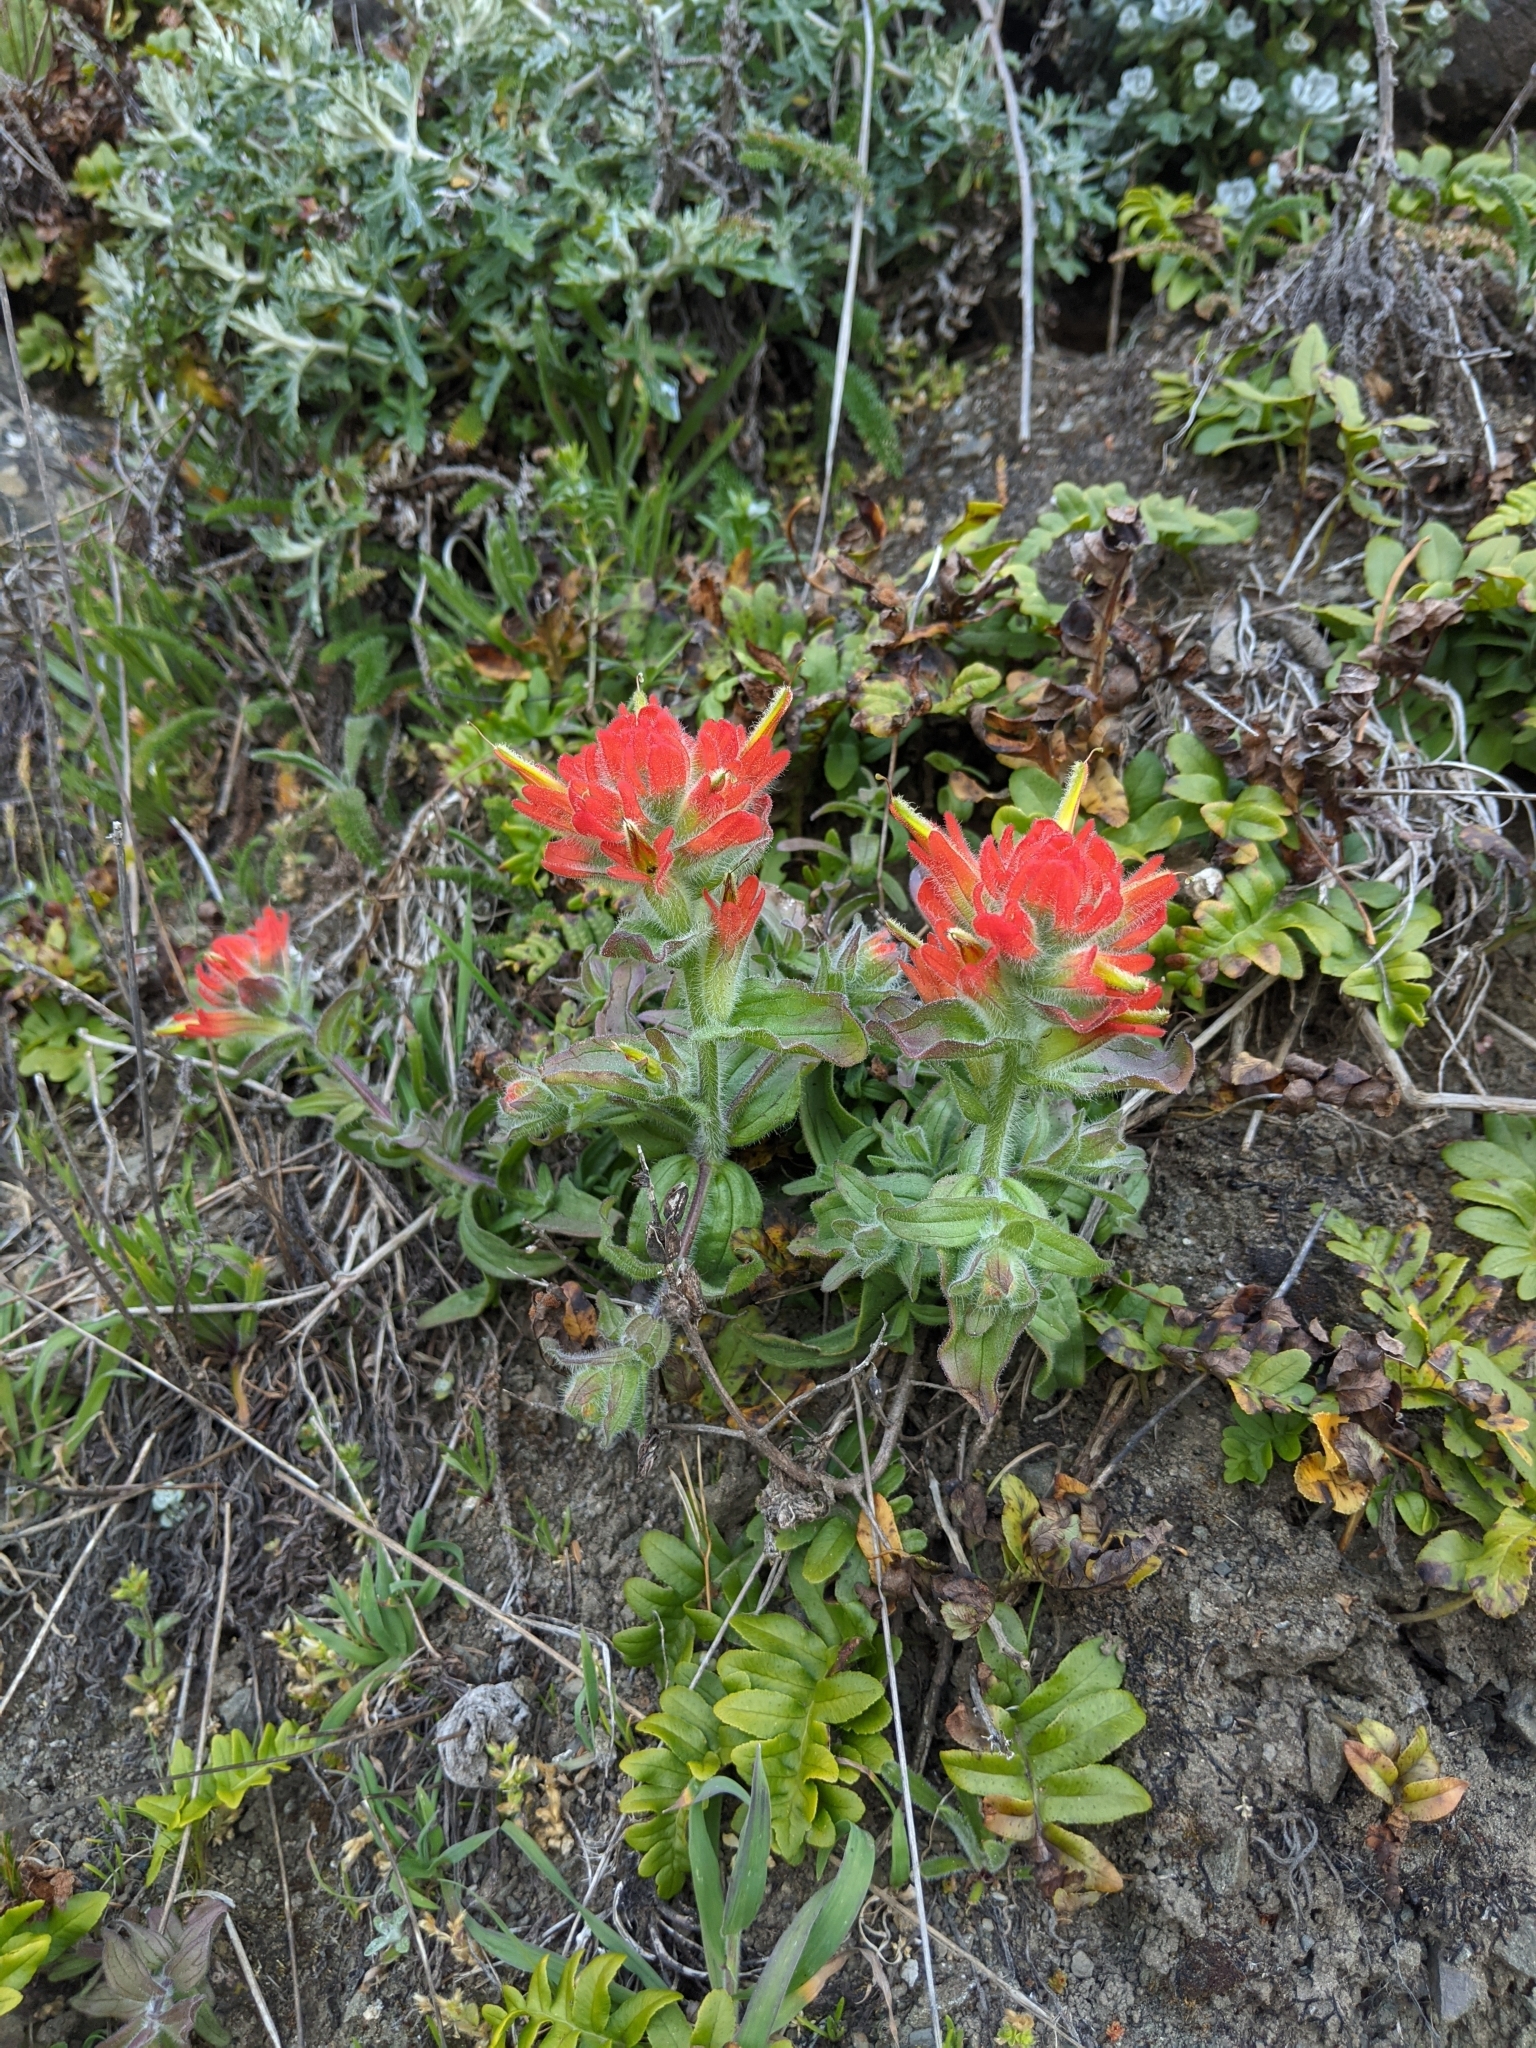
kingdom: Plantae
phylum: Tracheophyta
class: Magnoliopsida
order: Lamiales
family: Orobanchaceae
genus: Castilleja
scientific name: Castilleja litoralis
